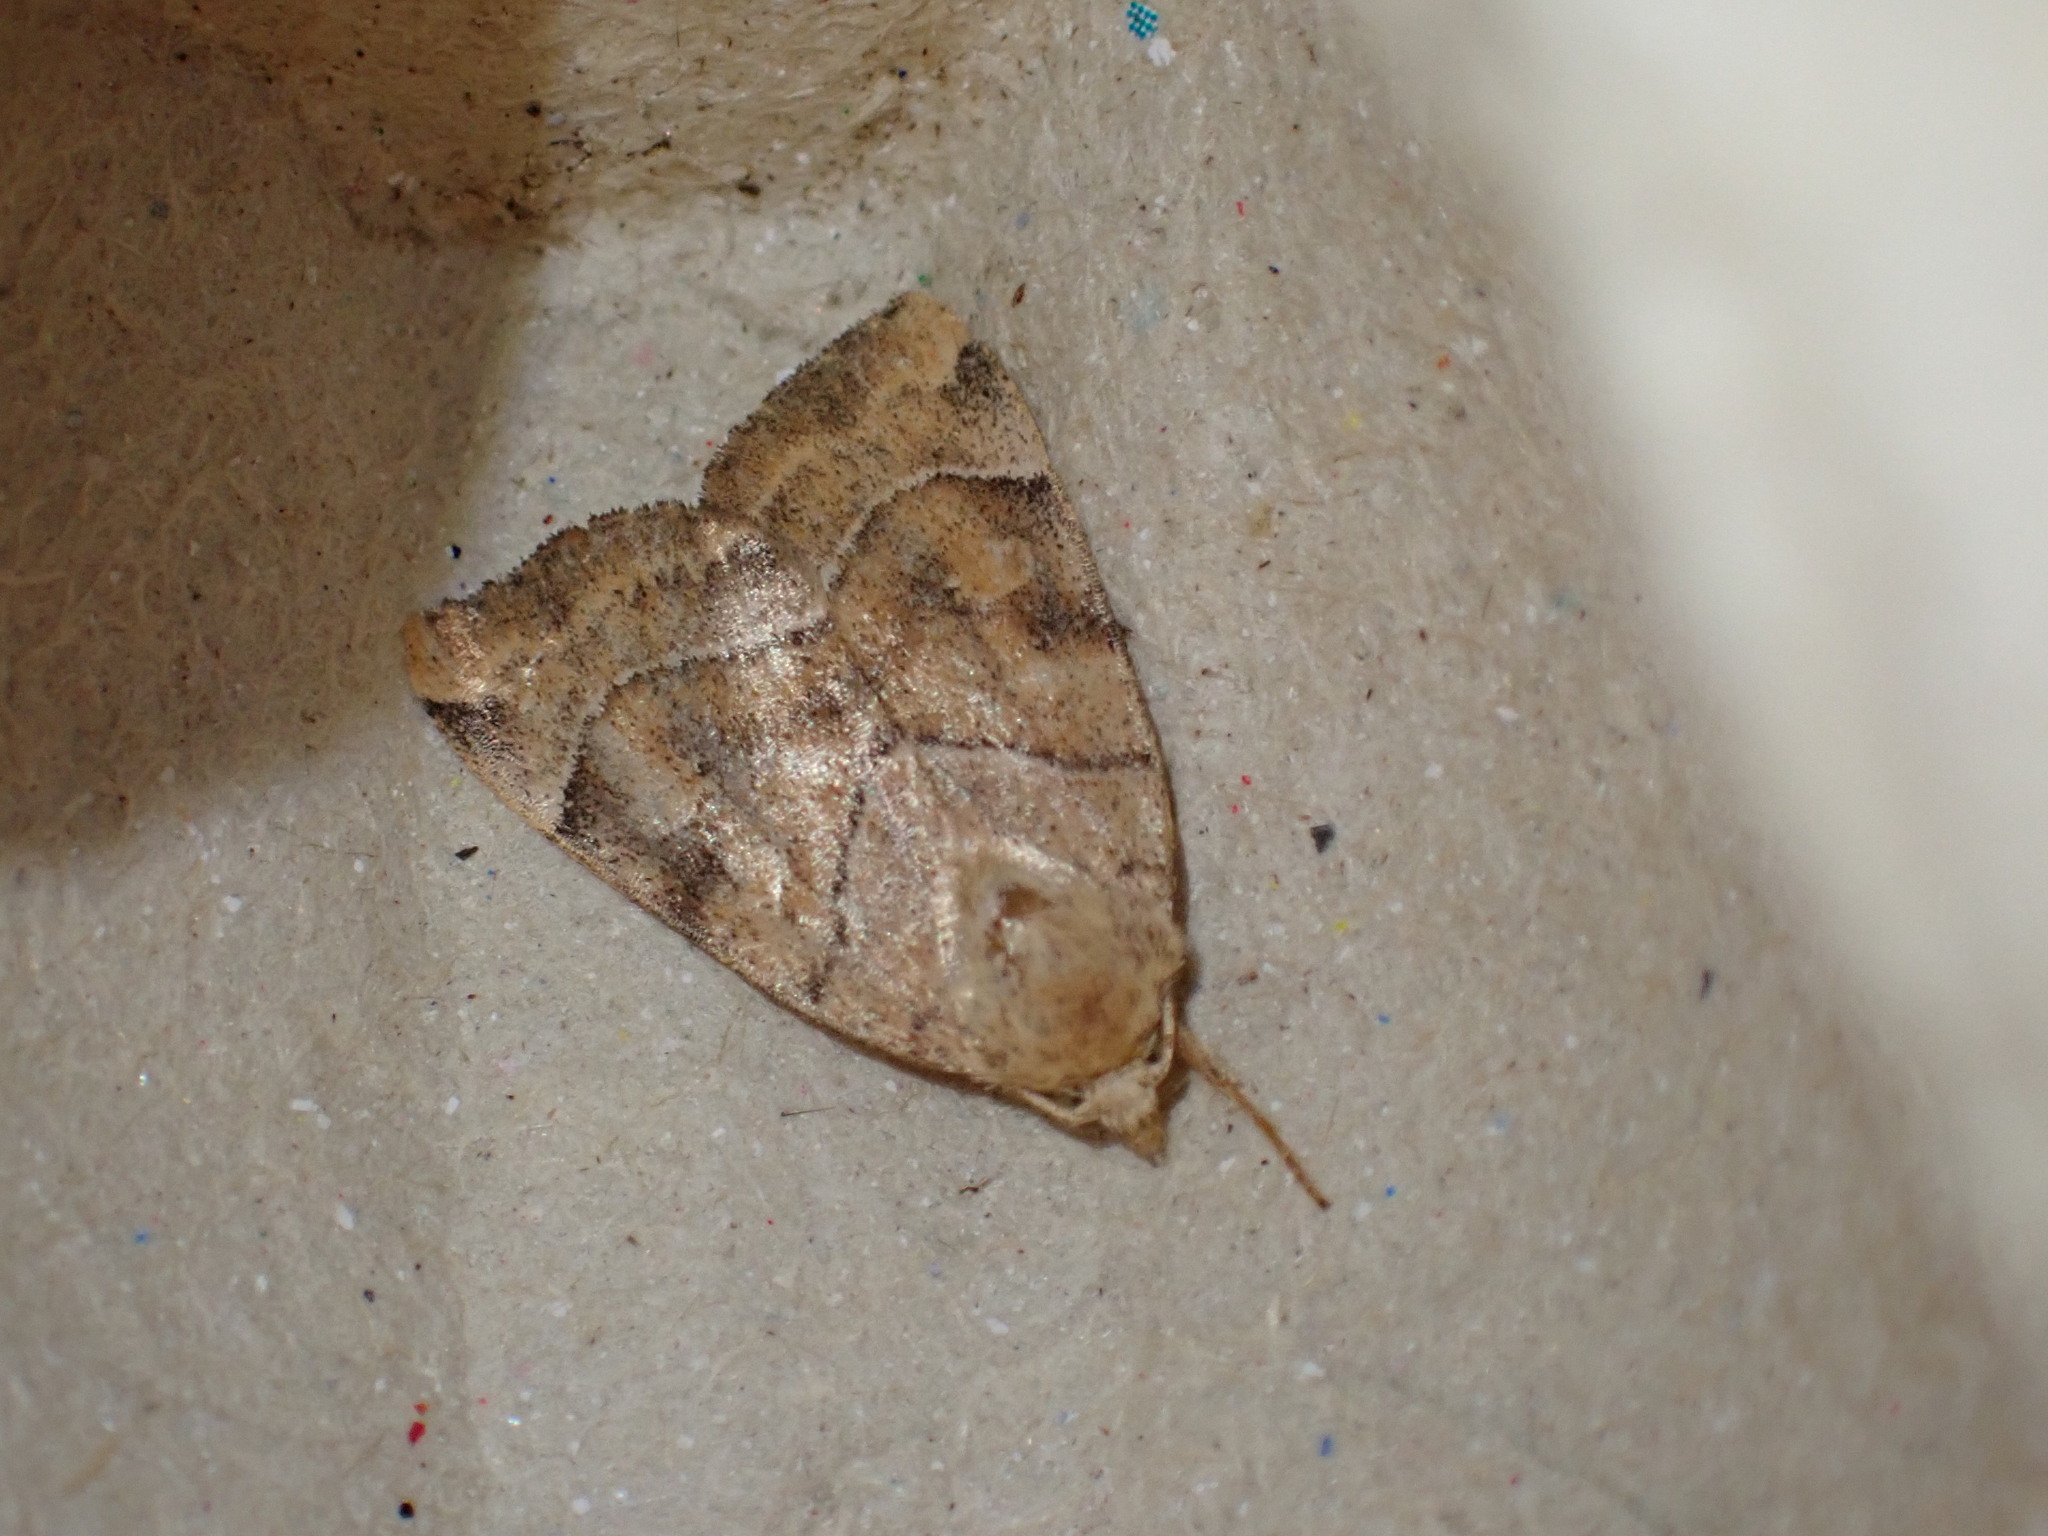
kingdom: Animalia
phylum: Arthropoda
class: Insecta
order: Lepidoptera
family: Noctuidae
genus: Cosmia
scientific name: Cosmia trapezina
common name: Dun-bar
